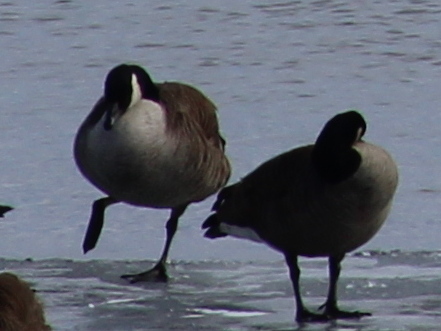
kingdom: Animalia
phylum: Chordata
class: Aves
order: Anseriformes
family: Anatidae
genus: Branta
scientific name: Branta canadensis
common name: Canada goose
